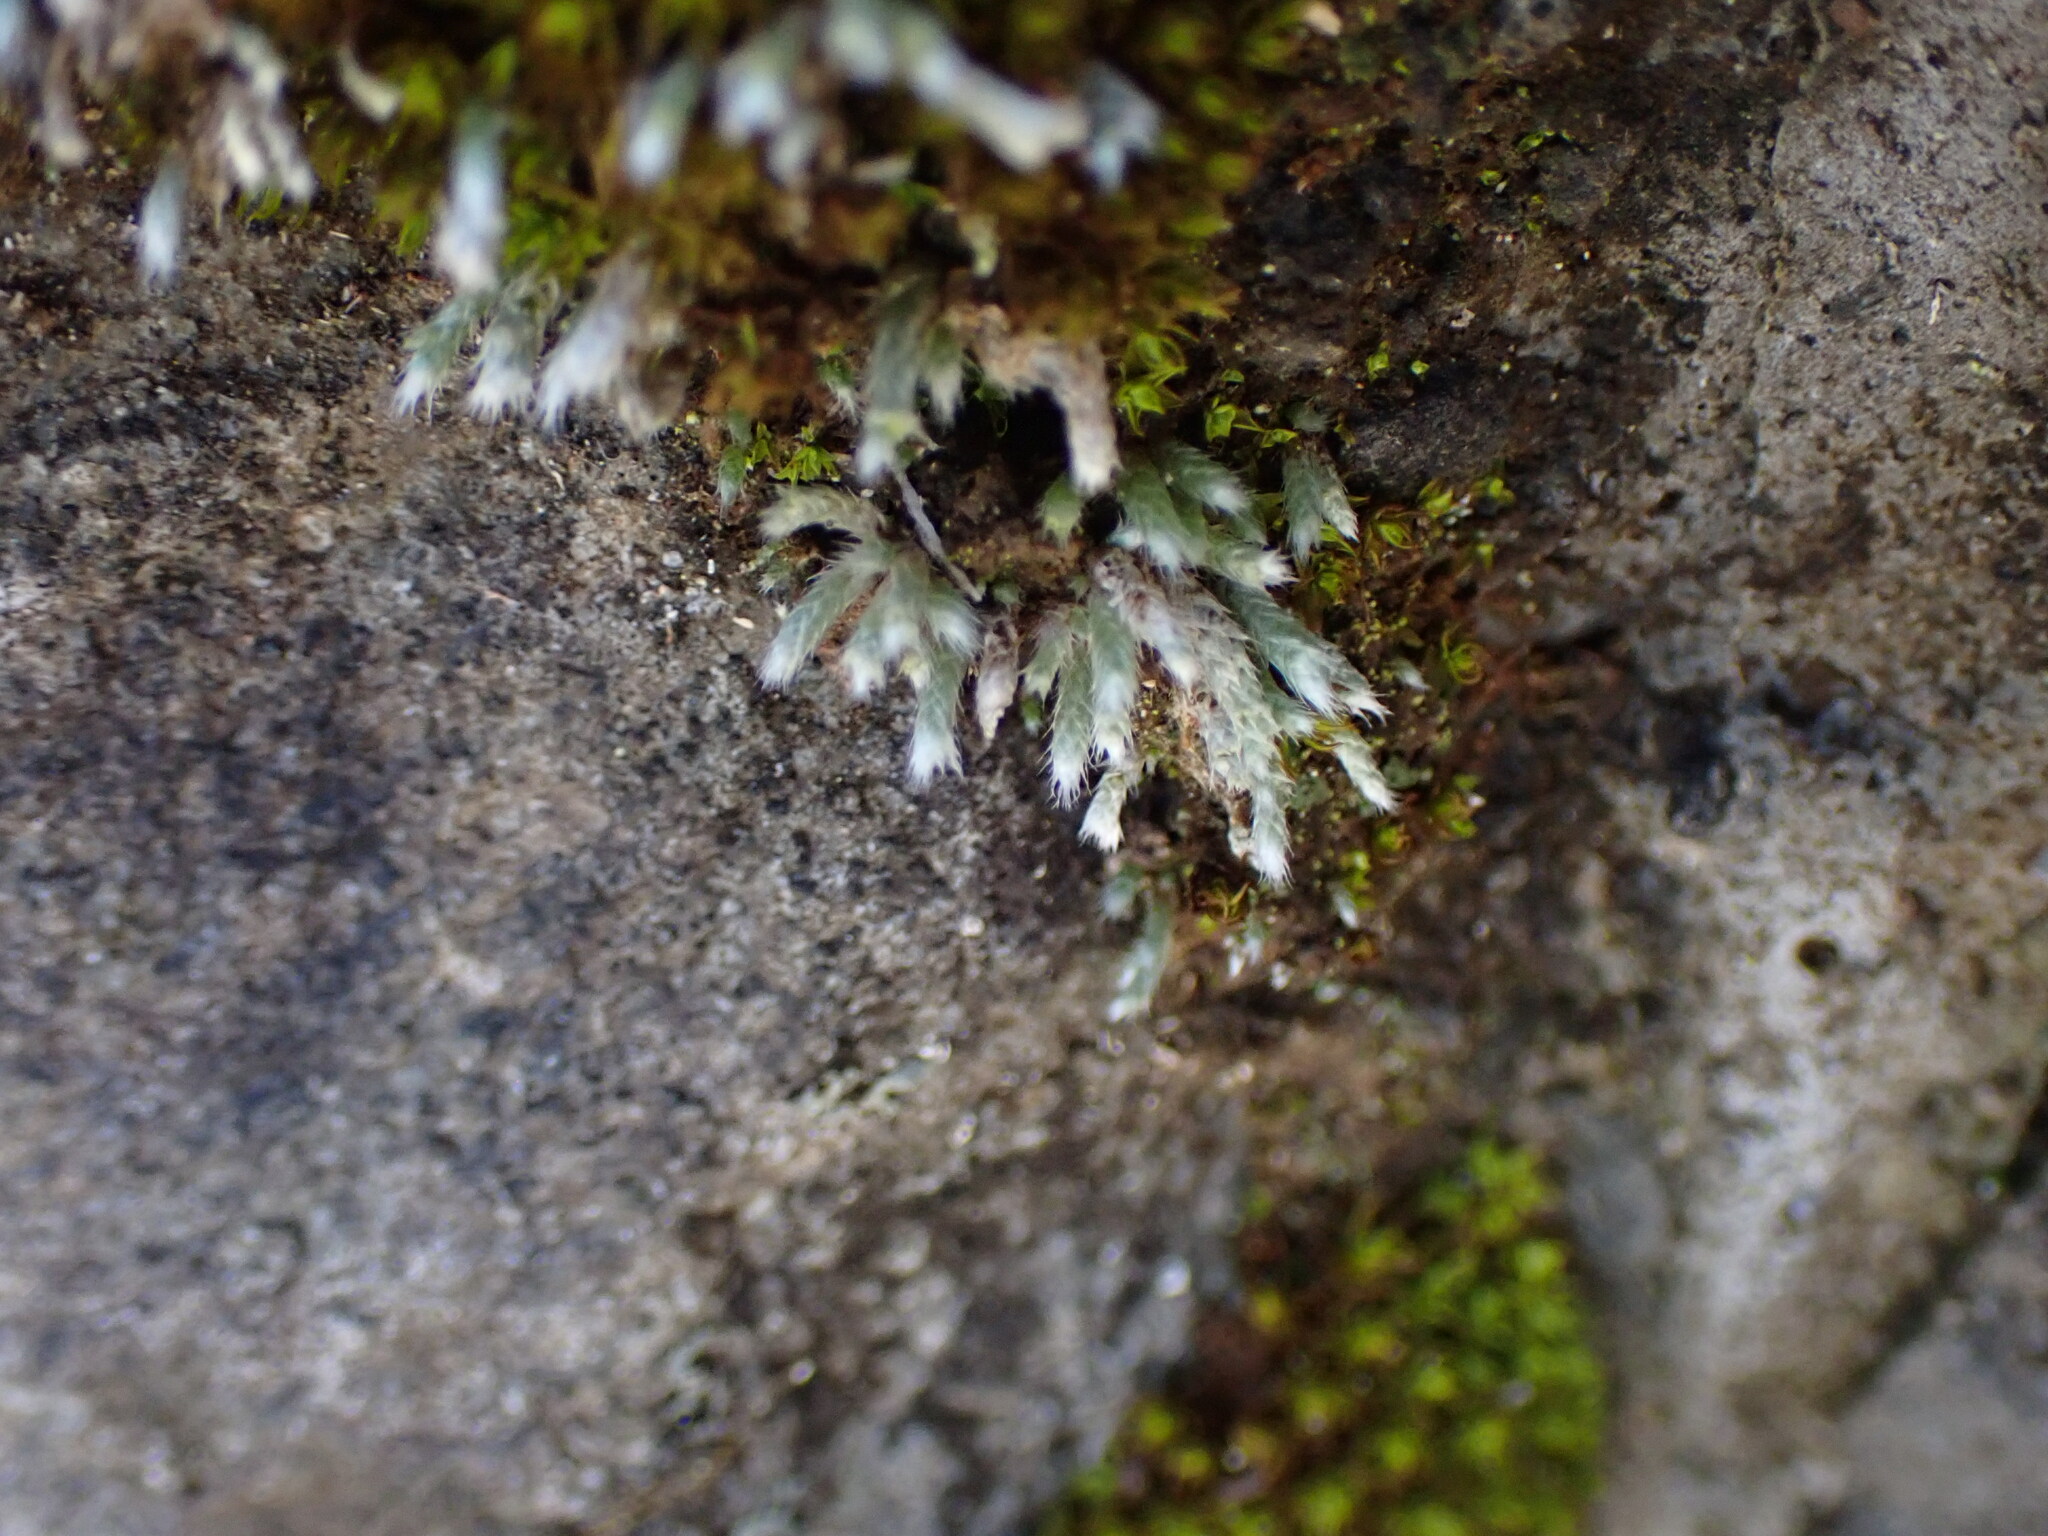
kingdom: Plantae
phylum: Bryophyta
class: Bryopsida
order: Bryales
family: Bryaceae
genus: Bryum
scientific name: Bryum argenteum
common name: Silver-moss
